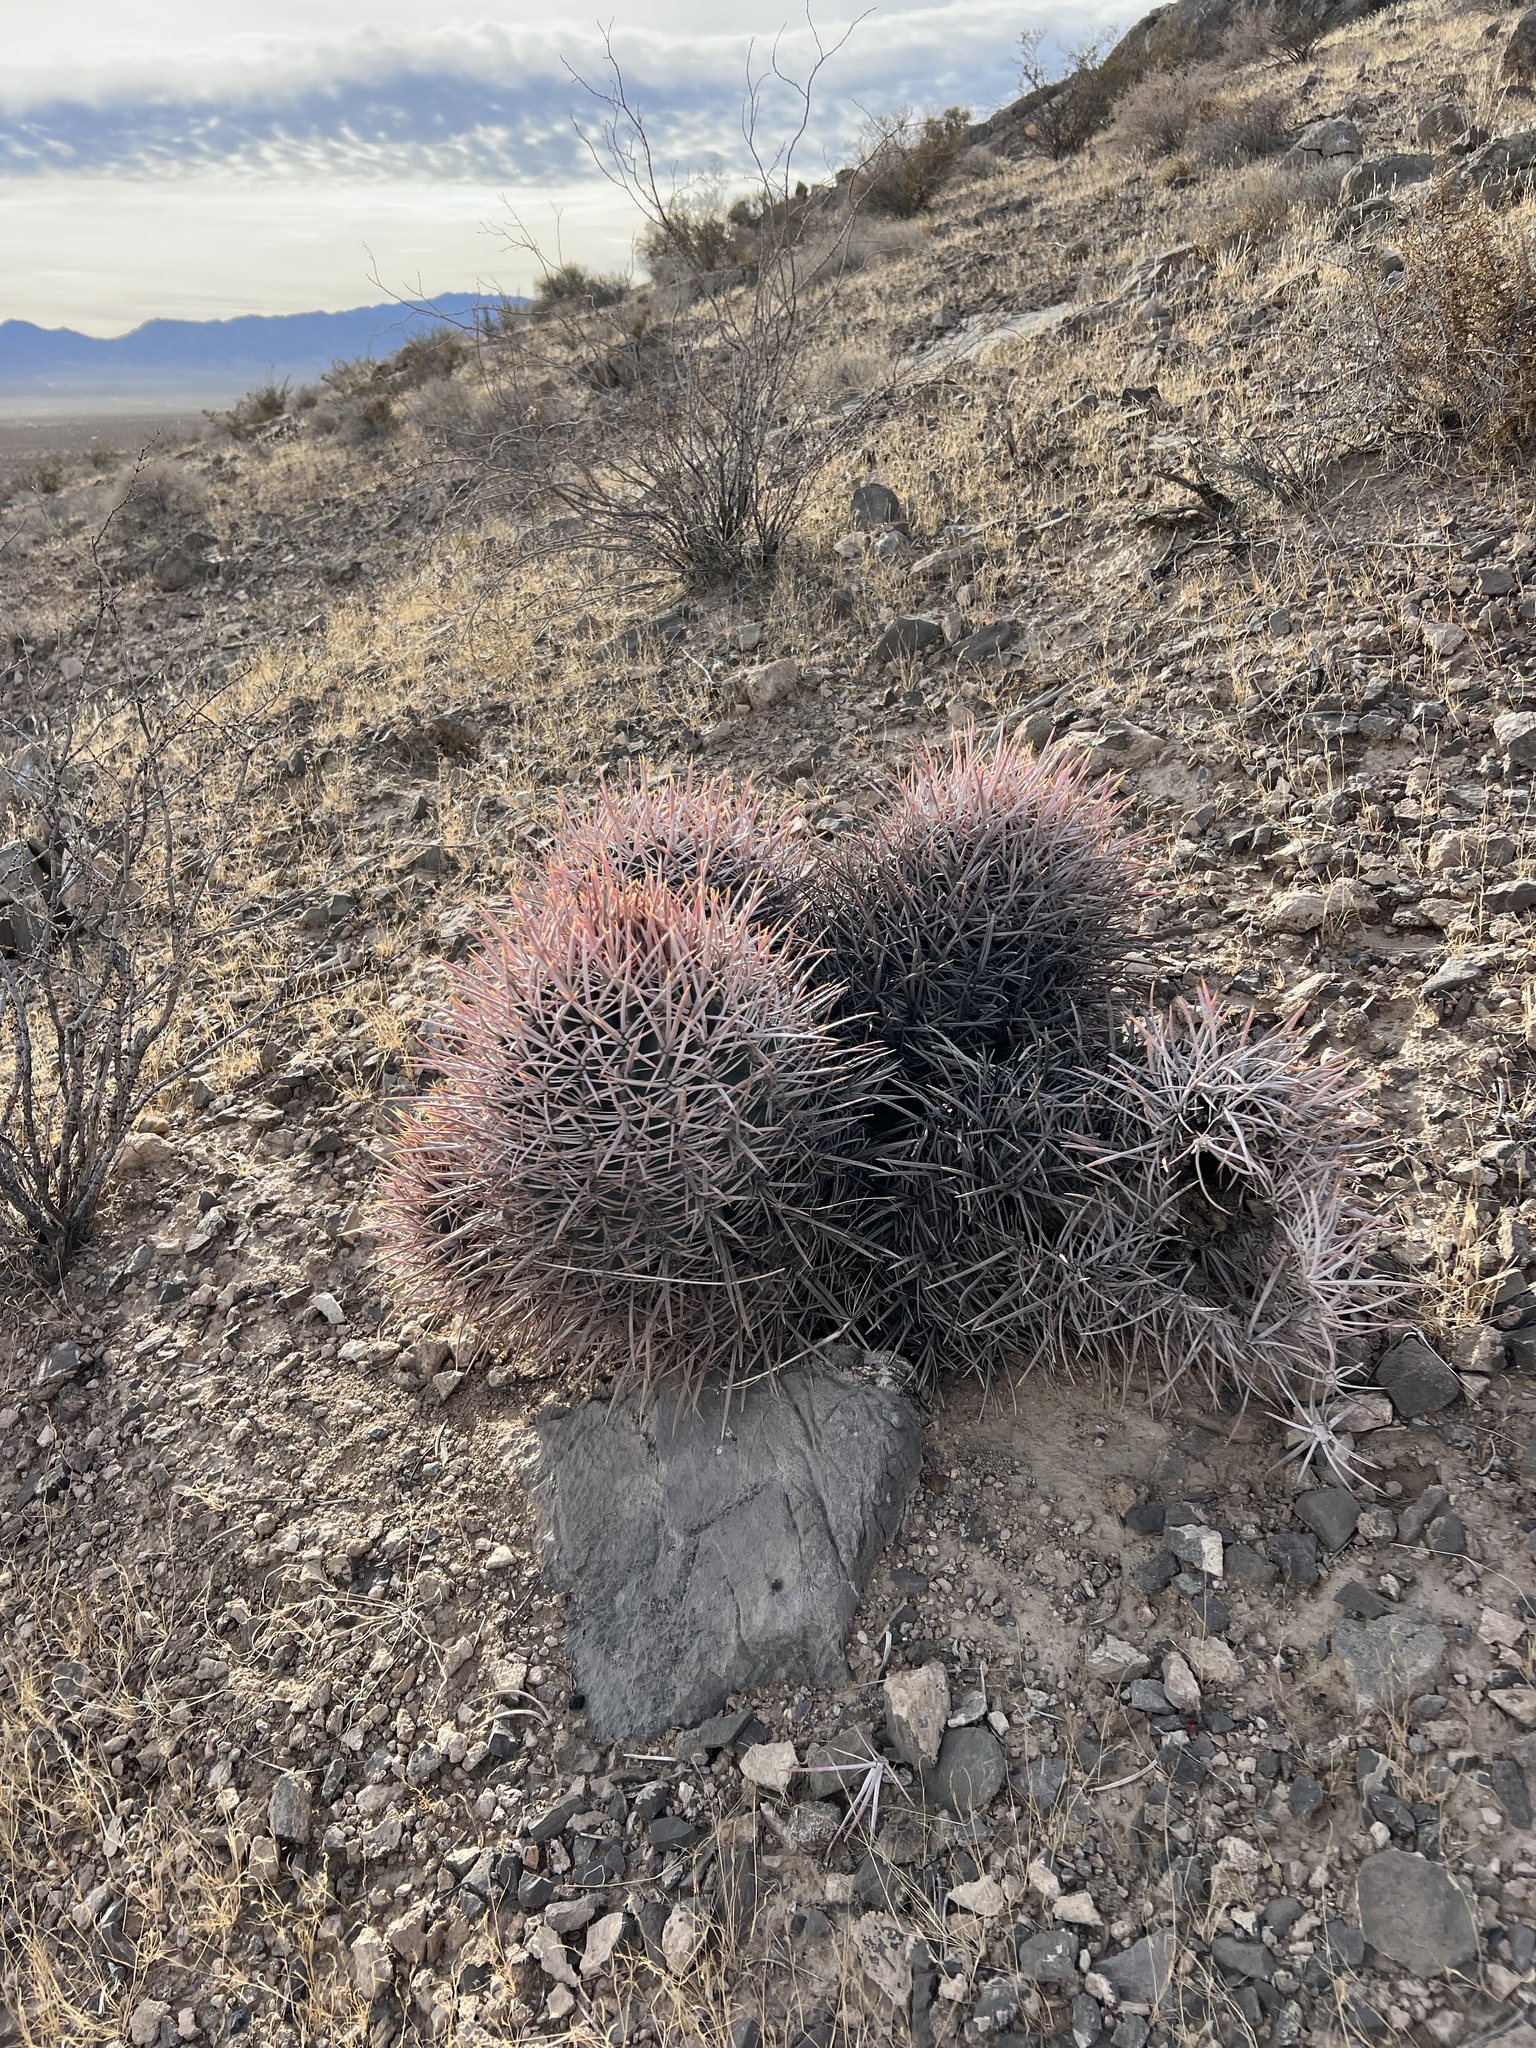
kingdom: Plantae
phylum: Tracheophyta
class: Magnoliopsida
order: Caryophyllales
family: Cactaceae
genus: Echinocactus
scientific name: Echinocactus polycephalus
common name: Cottontop cactus
